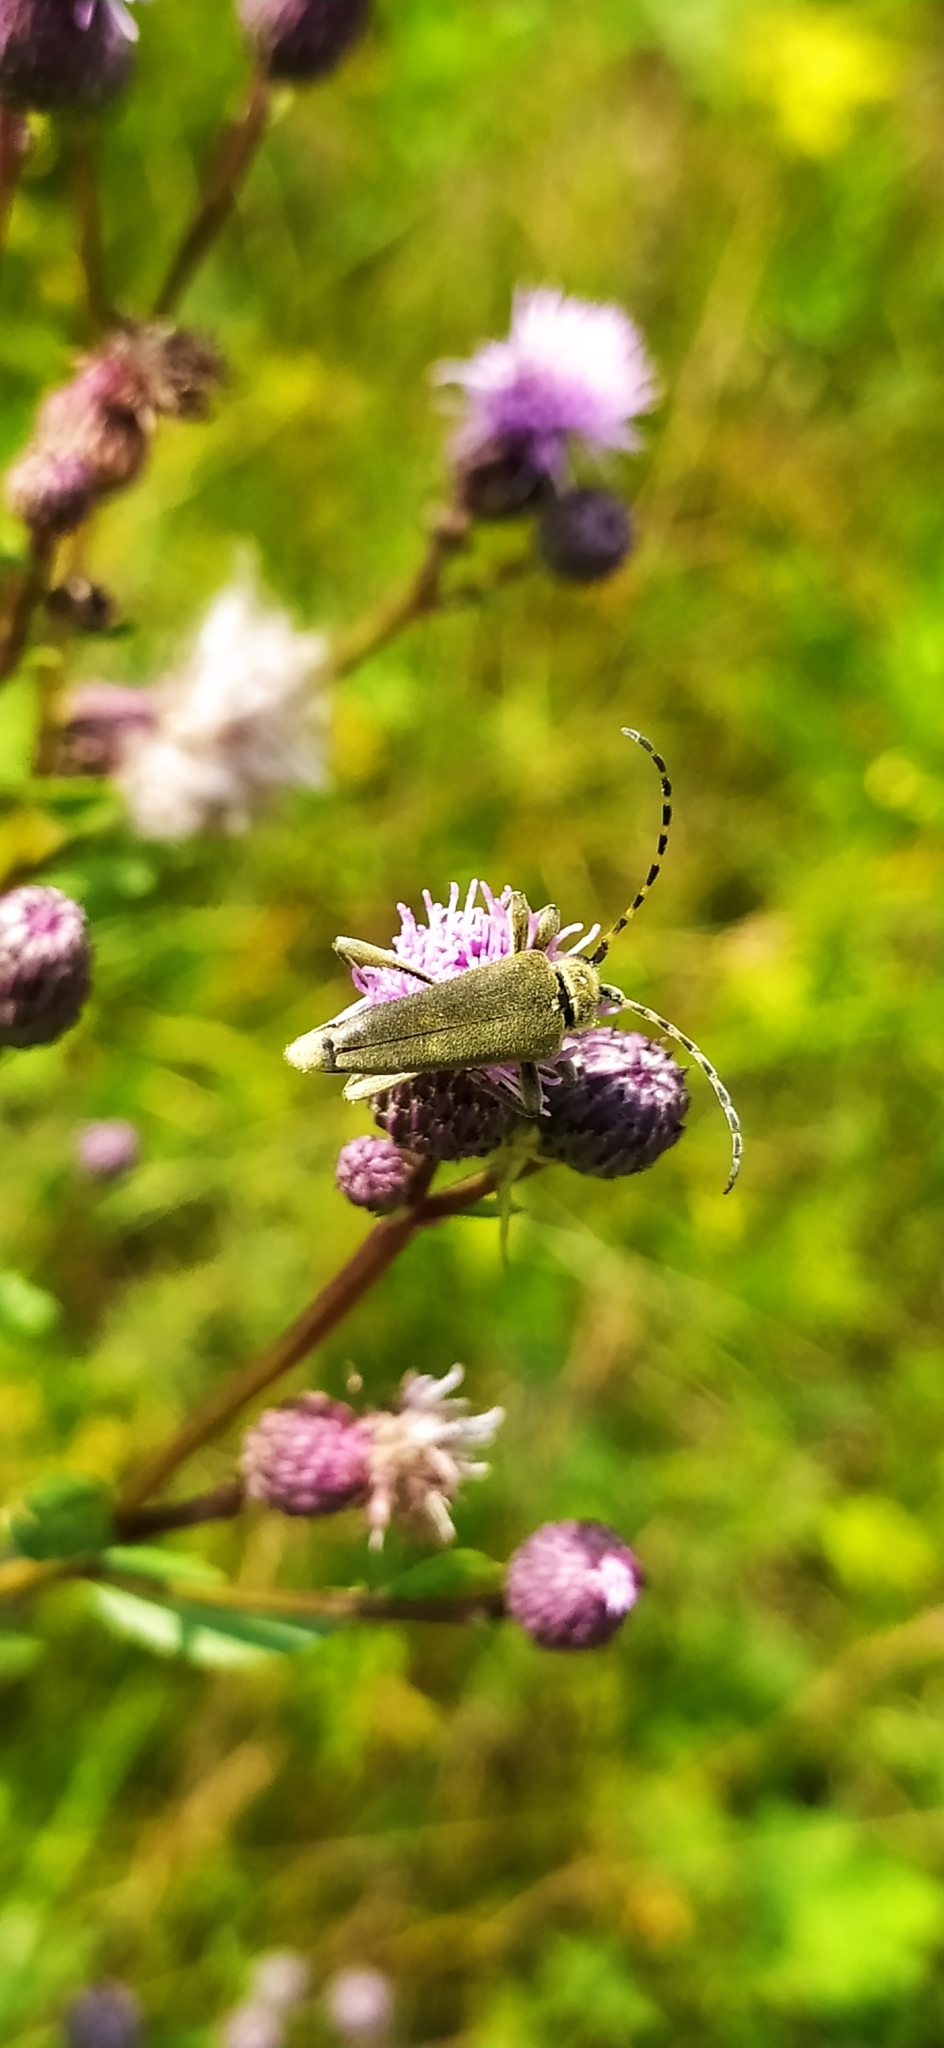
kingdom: Animalia
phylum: Arthropoda
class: Insecta
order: Coleoptera
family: Cerambycidae
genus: Lepturobosca
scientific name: Lepturobosca virens
